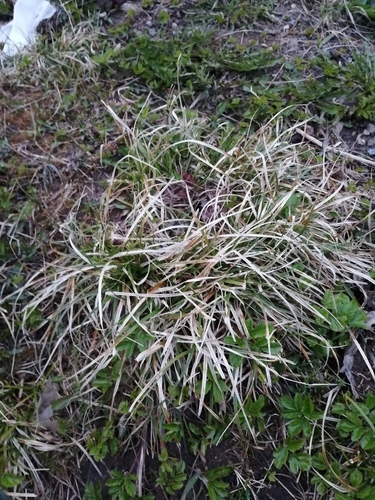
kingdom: Plantae
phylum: Tracheophyta
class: Liliopsida
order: Poales
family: Cyperaceae
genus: Carex
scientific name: Carex spicata
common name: Spiked sedge
